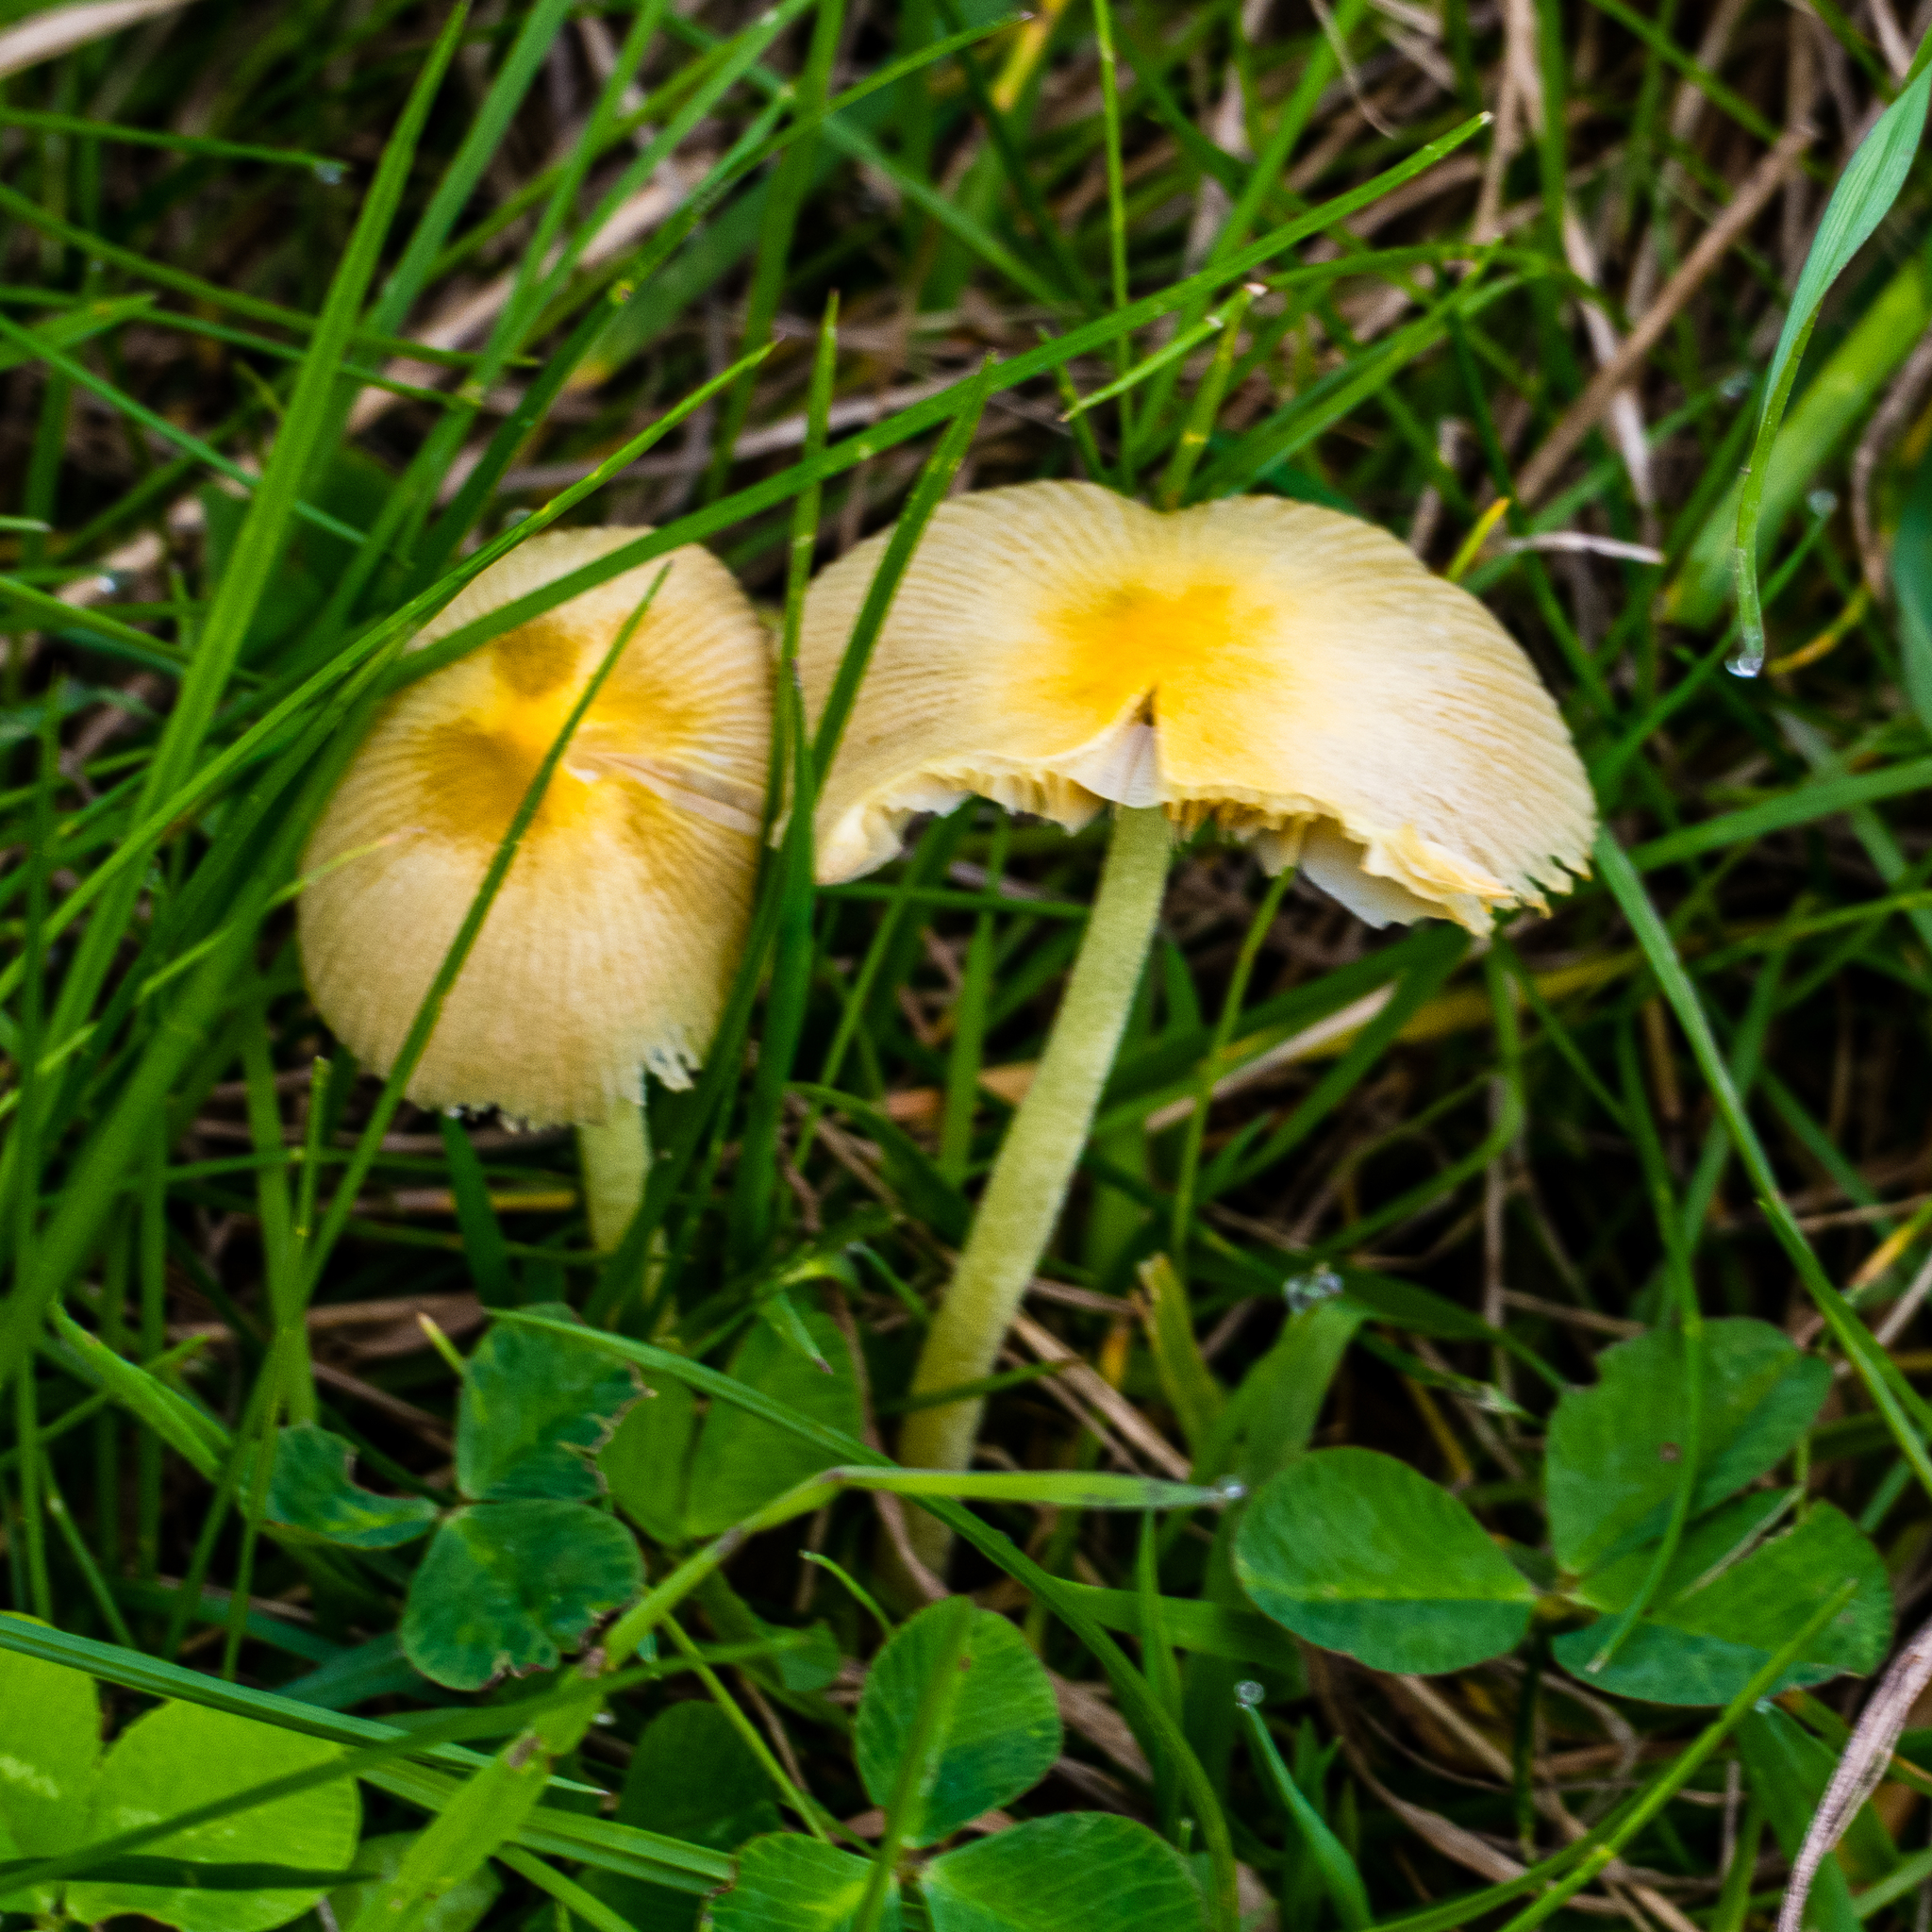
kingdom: Fungi
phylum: Basidiomycota
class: Agaricomycetes
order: Agaricales
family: Bolbitiaceae
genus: Bolbitius
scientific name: Bolbitius titubans
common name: Yellow fieldcap
